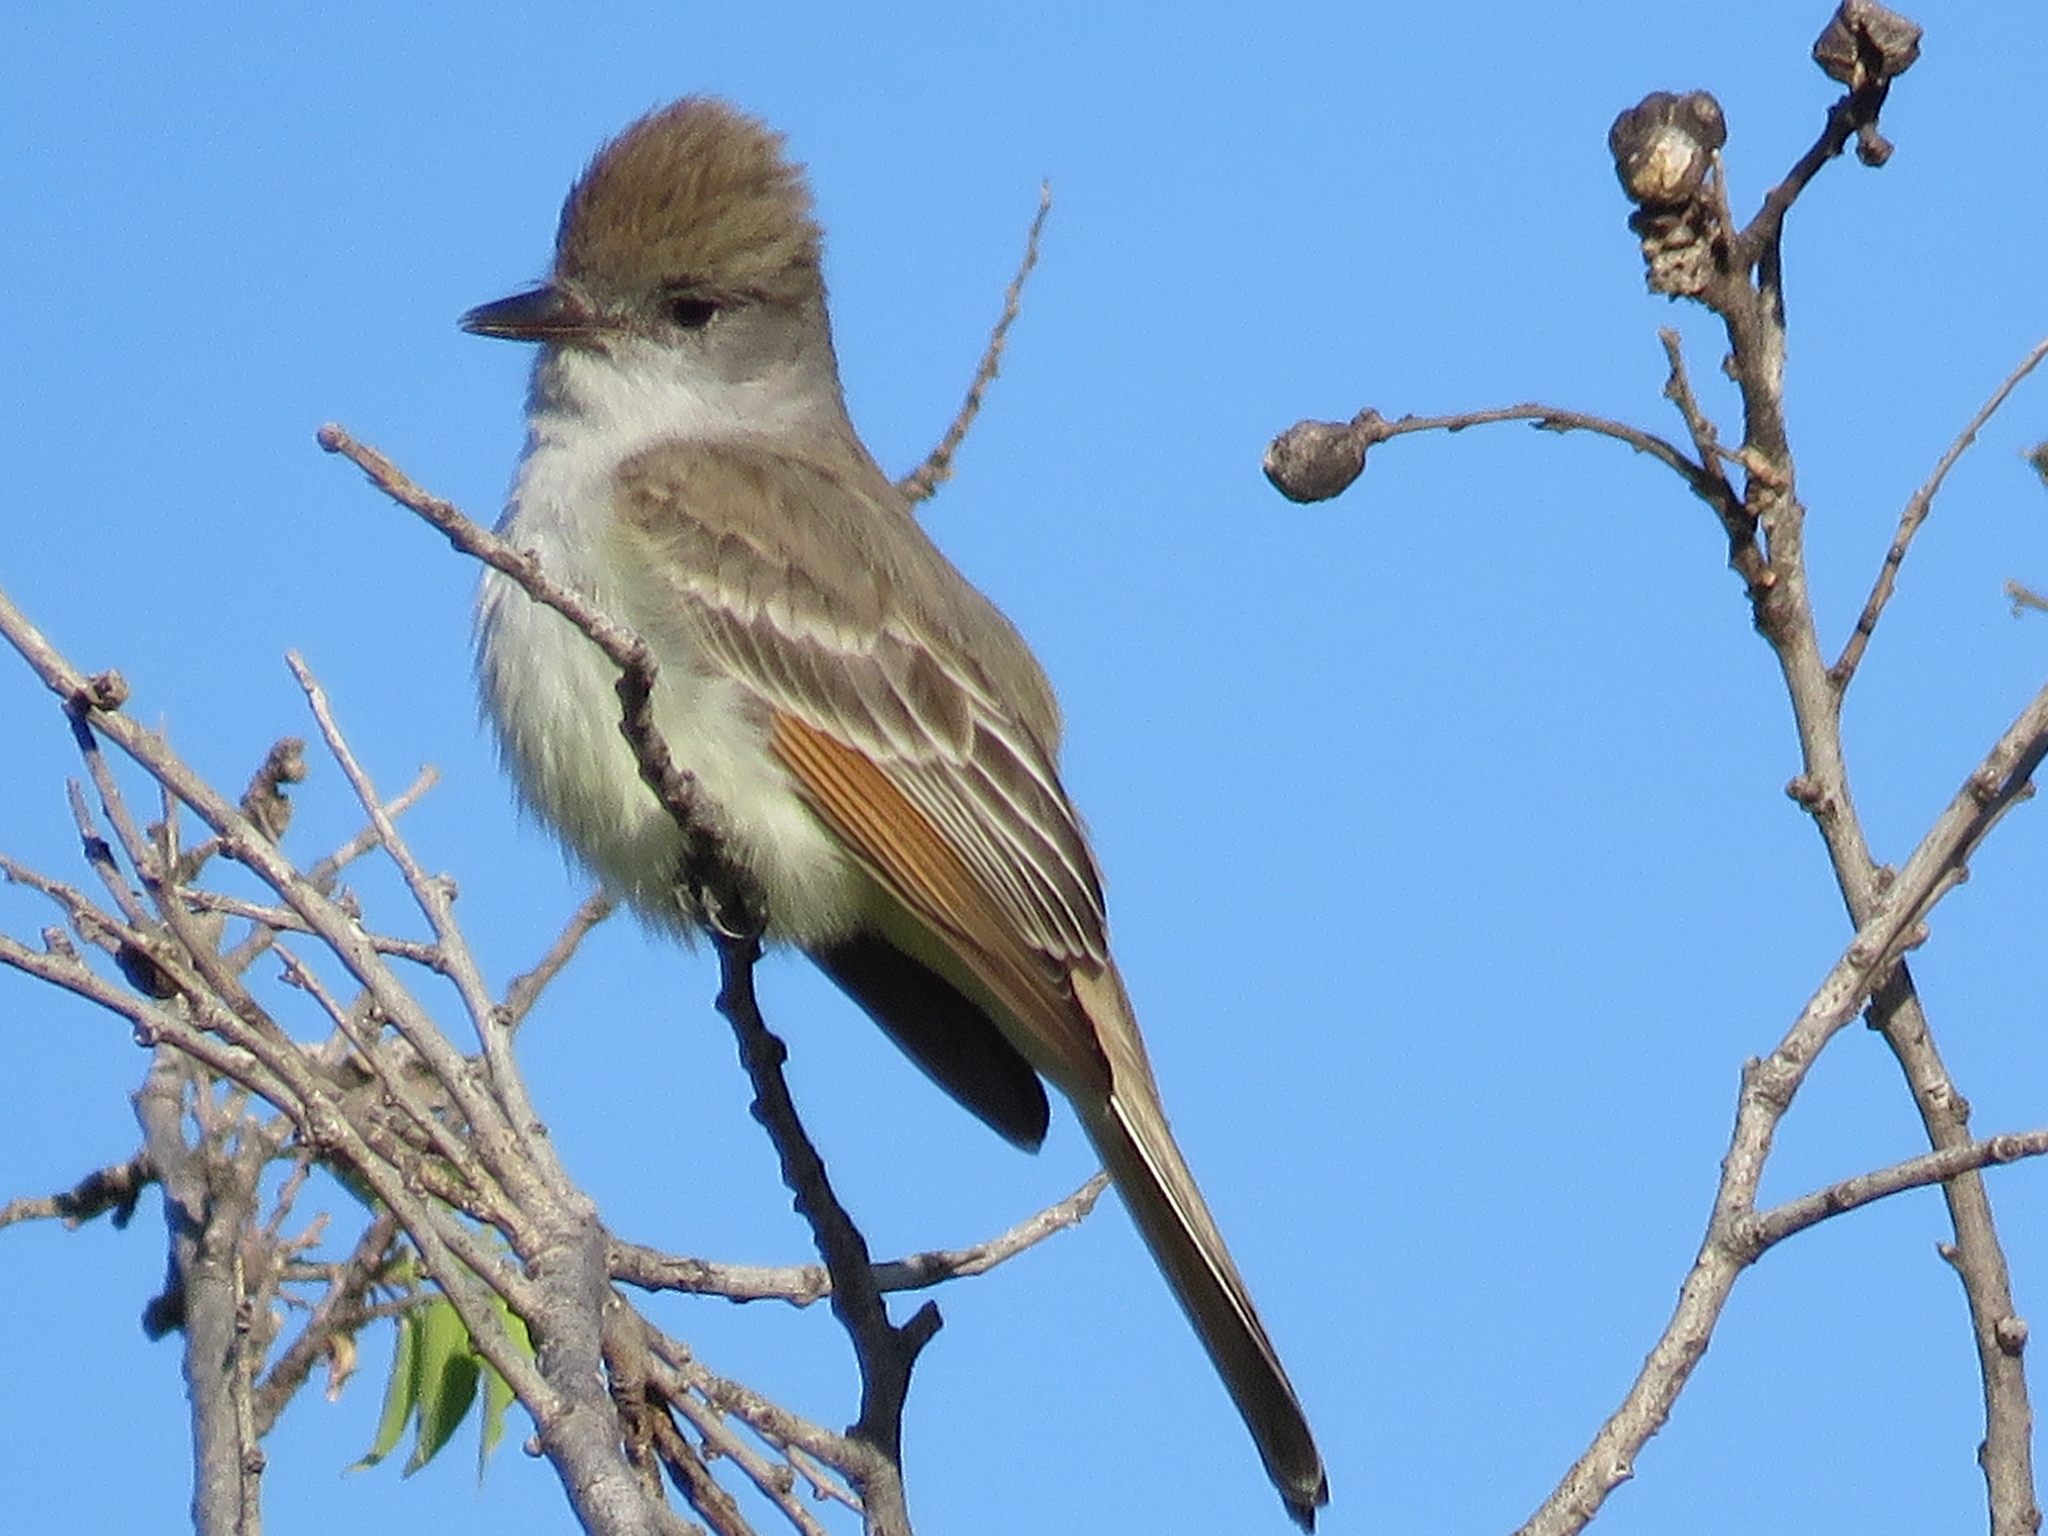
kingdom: Animalia
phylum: Chordata
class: Aves
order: Passeriformes
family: Tyrannidae
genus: Myiarchus
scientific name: Myiarchus cinerascens
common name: Ash-throated flycatcher
